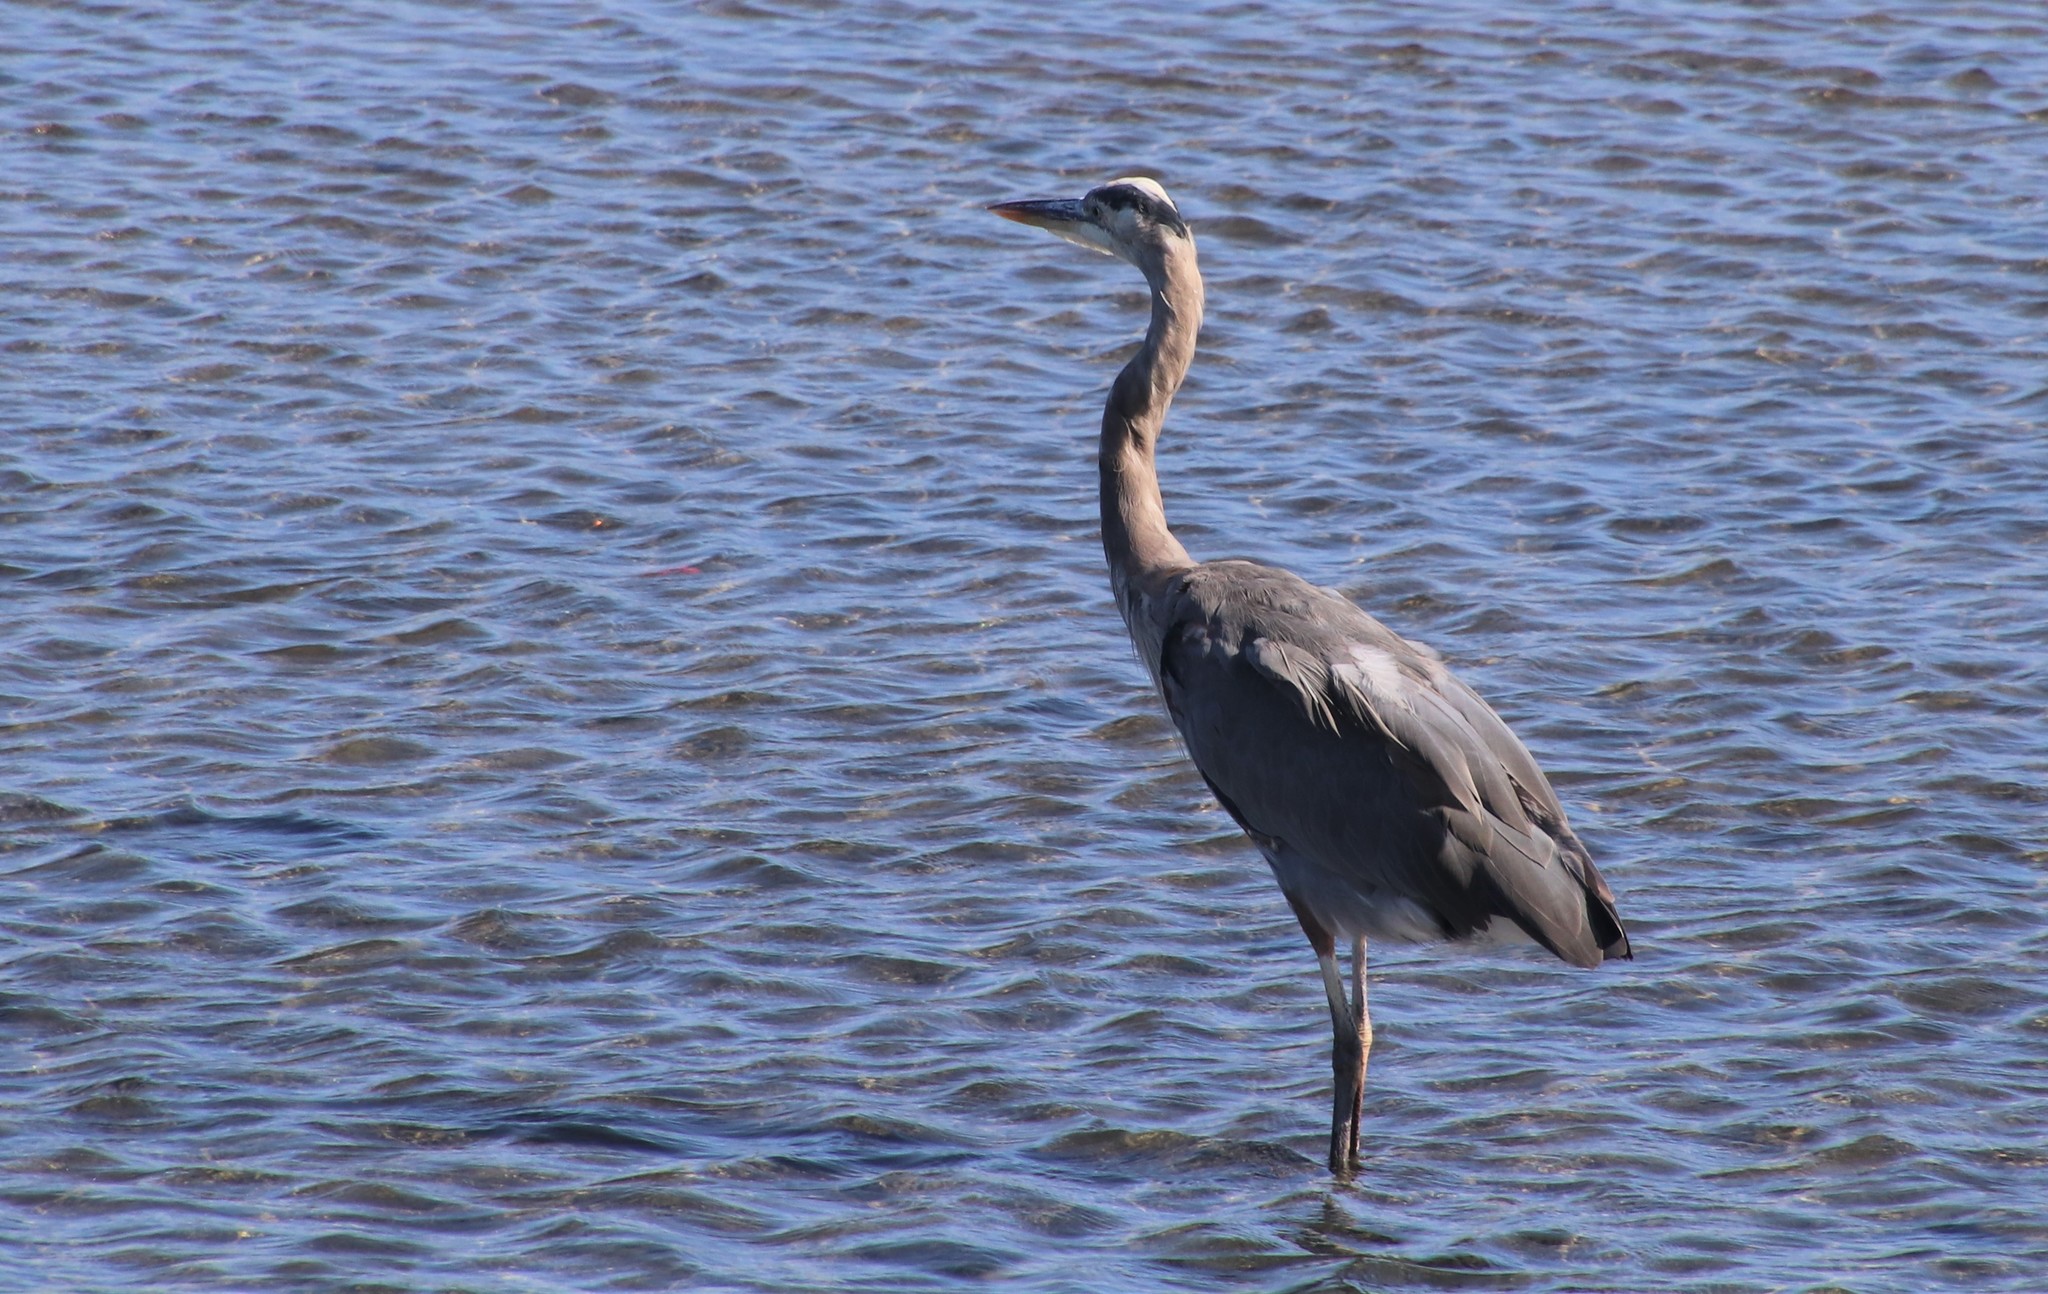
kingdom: Animalia
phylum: Chordata
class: Aves
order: Pelecaniformes
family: Ardeidae
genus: Ardea
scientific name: Ardea herodias
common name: Great blue heron
